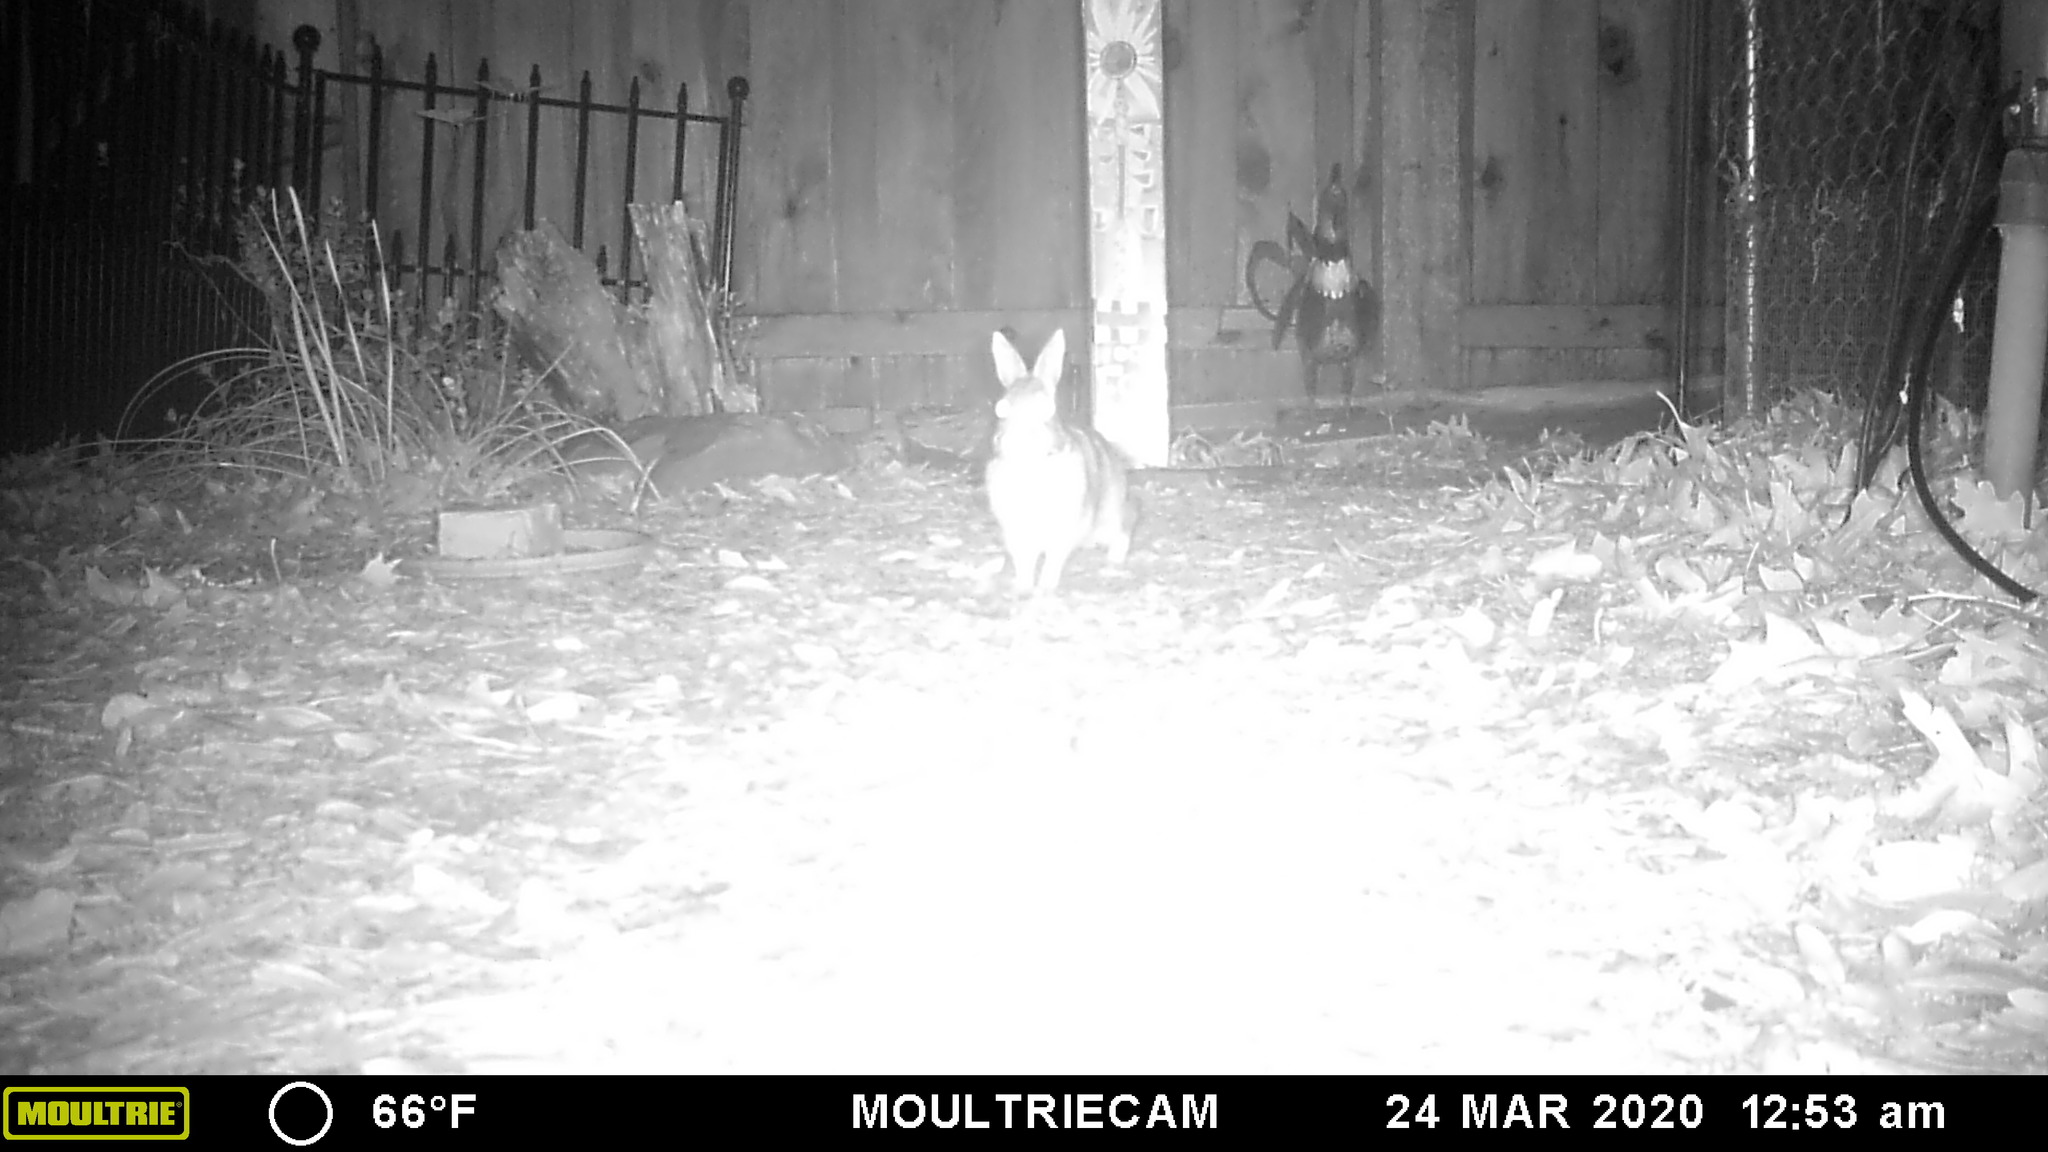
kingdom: Animalia
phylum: Chordata
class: Mammalia
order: Lagomorpha
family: Leporidae
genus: Sylvilagus
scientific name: Sylvilagus floridanus
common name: Eastern cottontail
